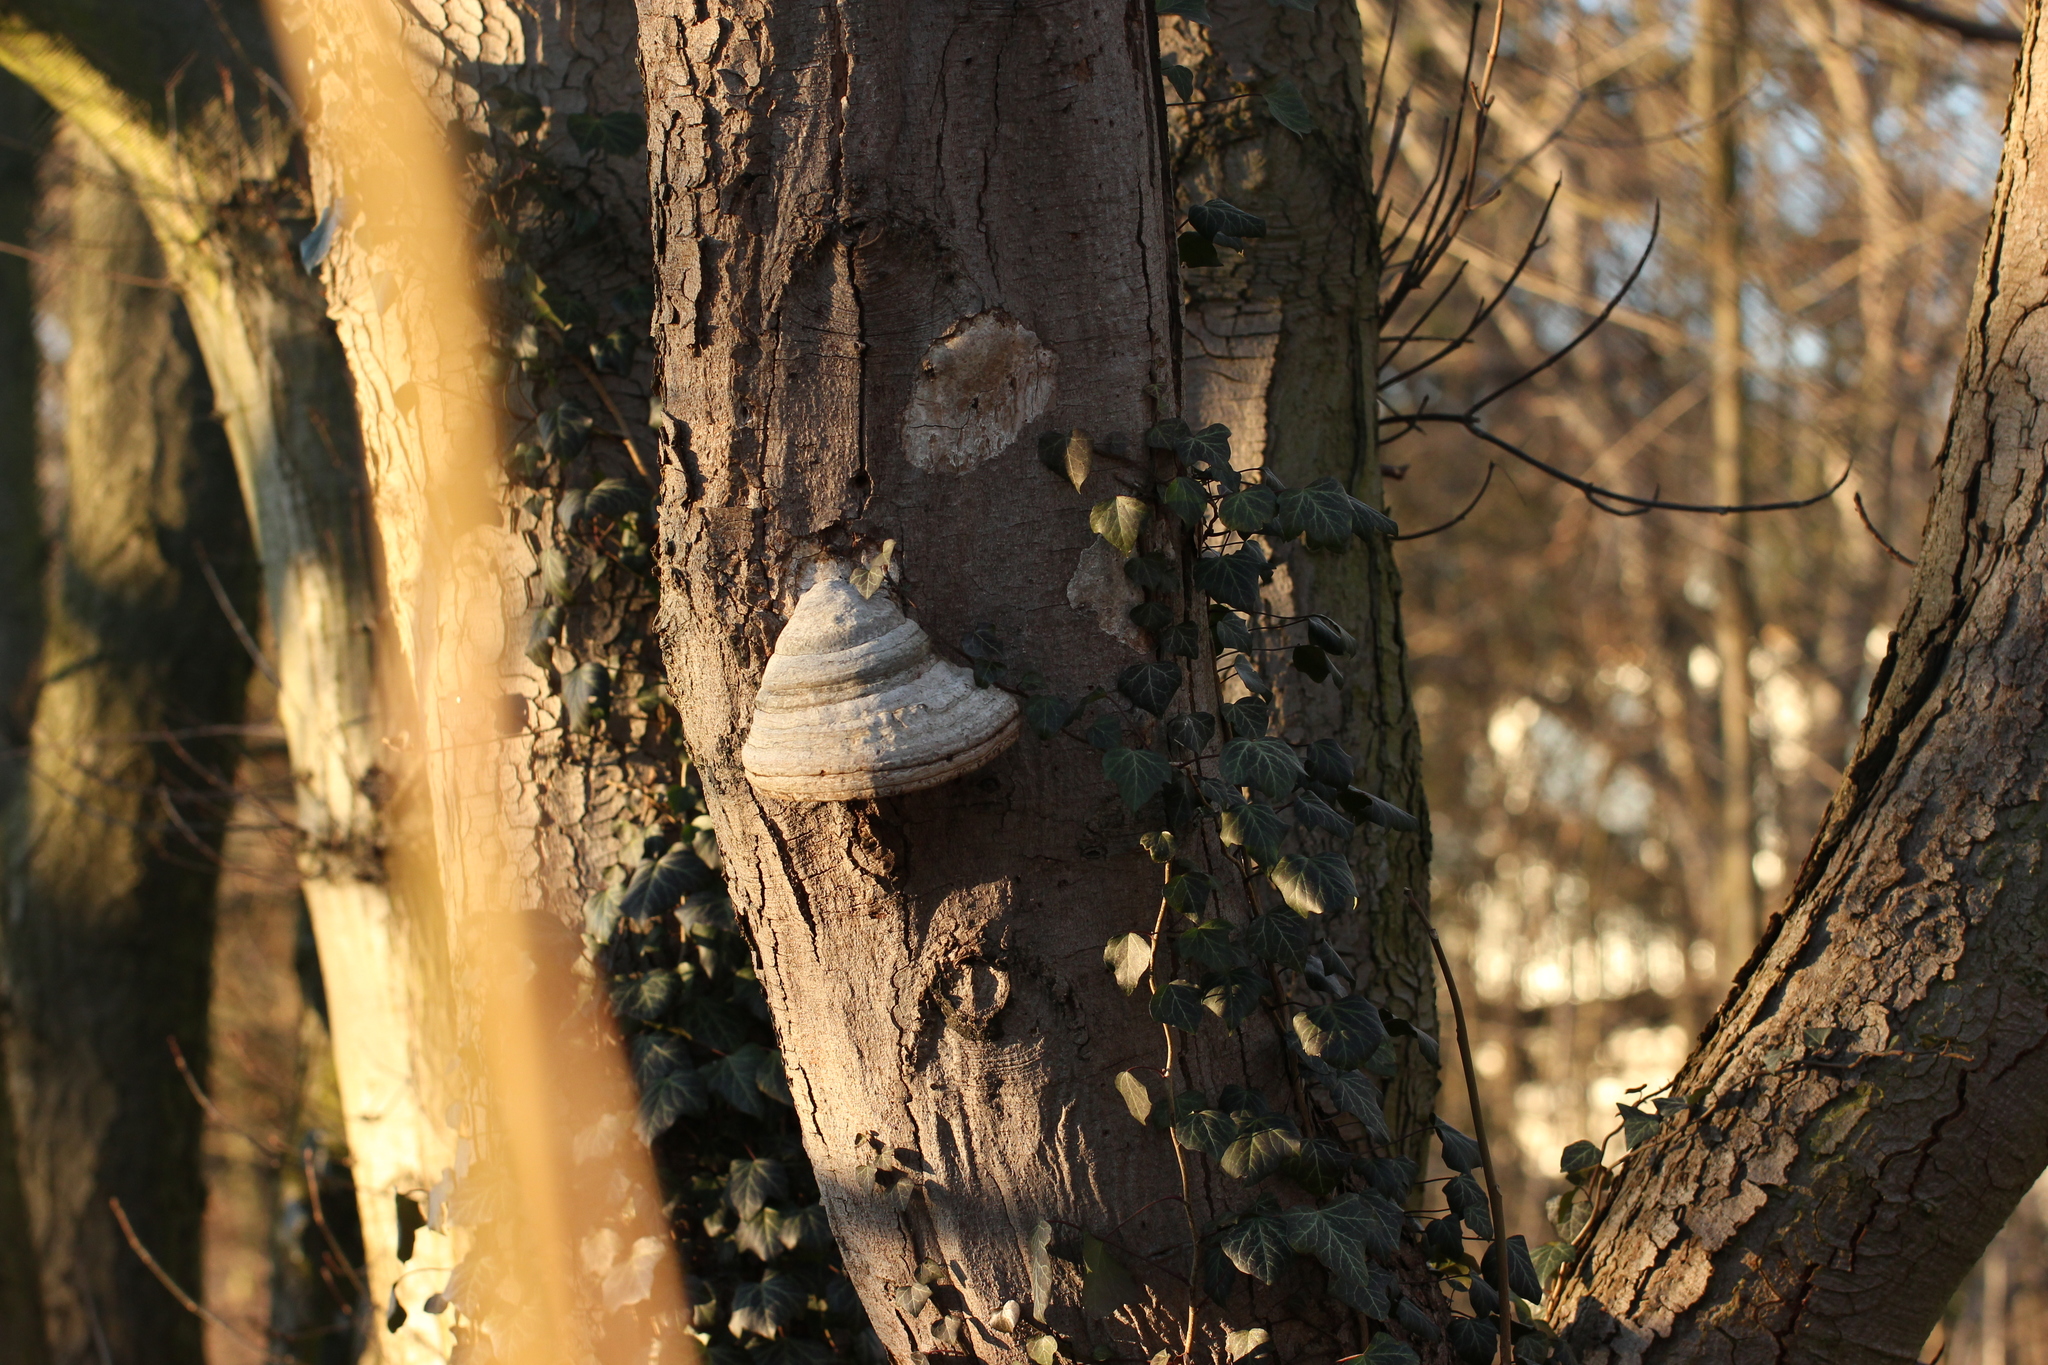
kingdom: Fungi
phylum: Basidiomycota
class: Agaricomycetes
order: Polyporales
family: Polyporaceae
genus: Fomes
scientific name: Fomes fomentarius
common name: Hoof fungus
